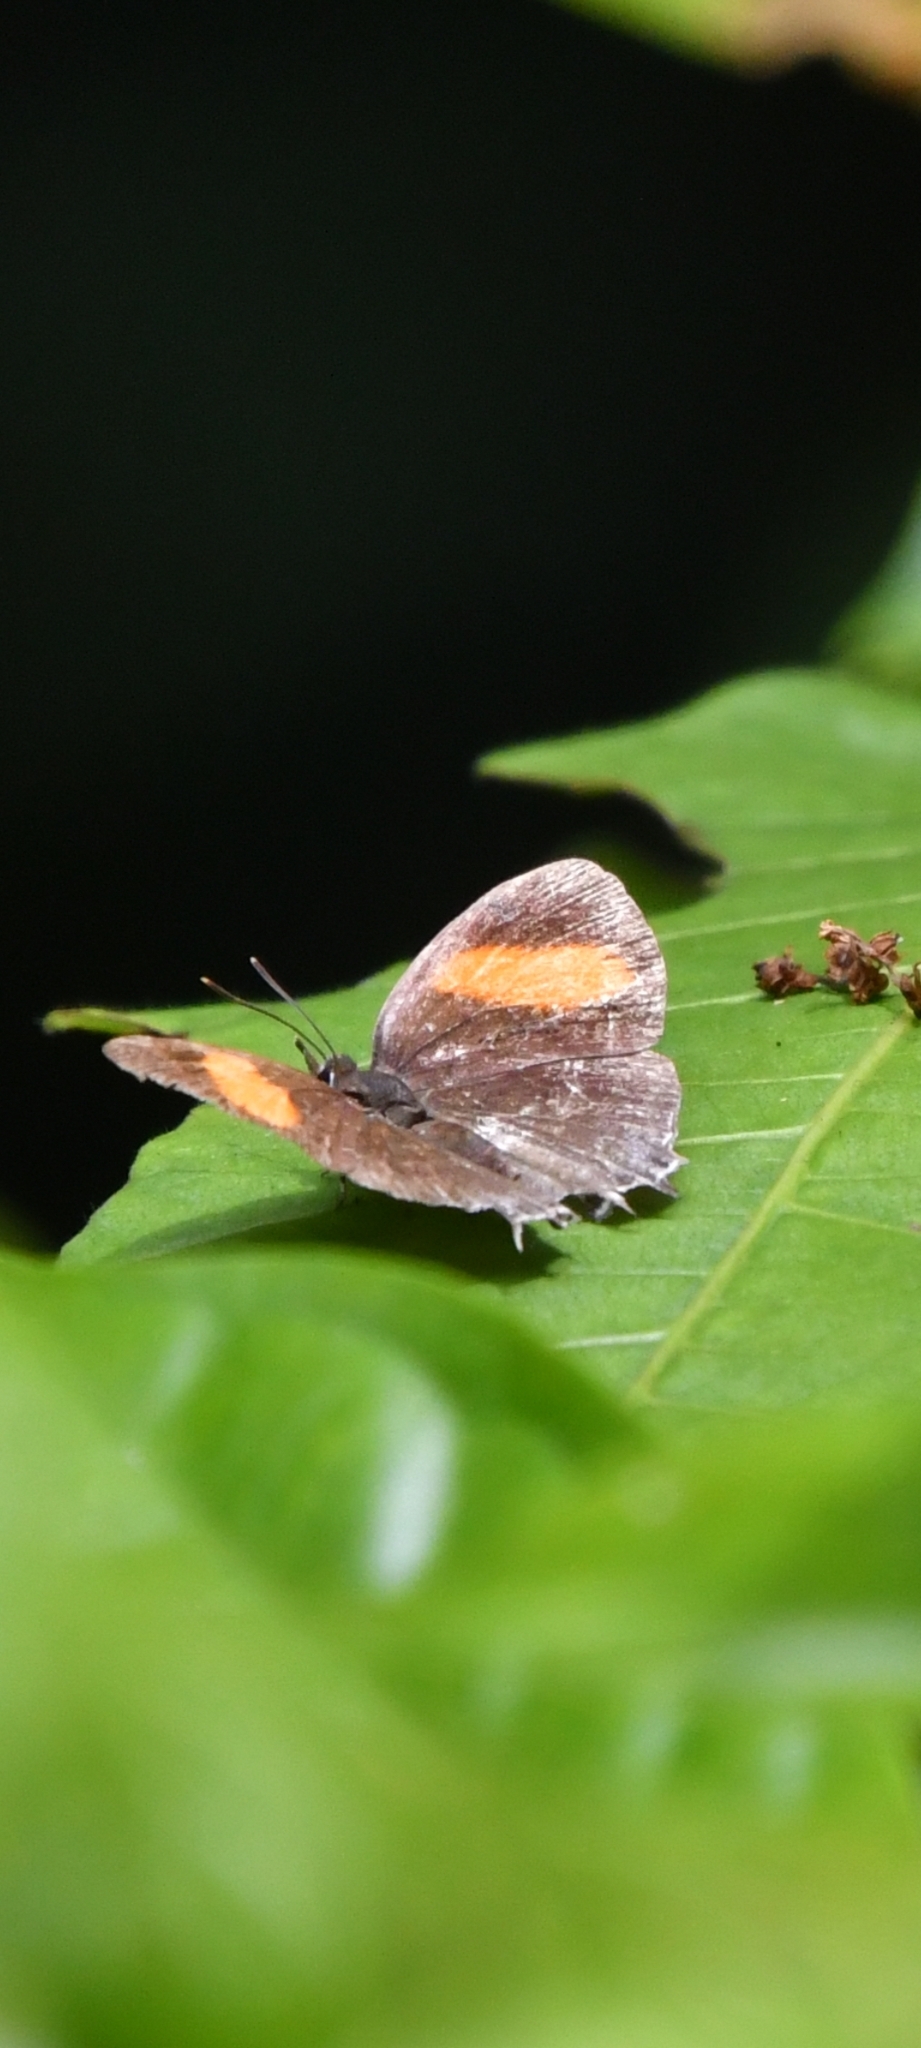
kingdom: Animalia
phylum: Arthropoda
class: Insecta
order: Lepidoptera
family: Lycaenidae
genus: Drupadia
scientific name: Drupadia ravindra
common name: Common posy
